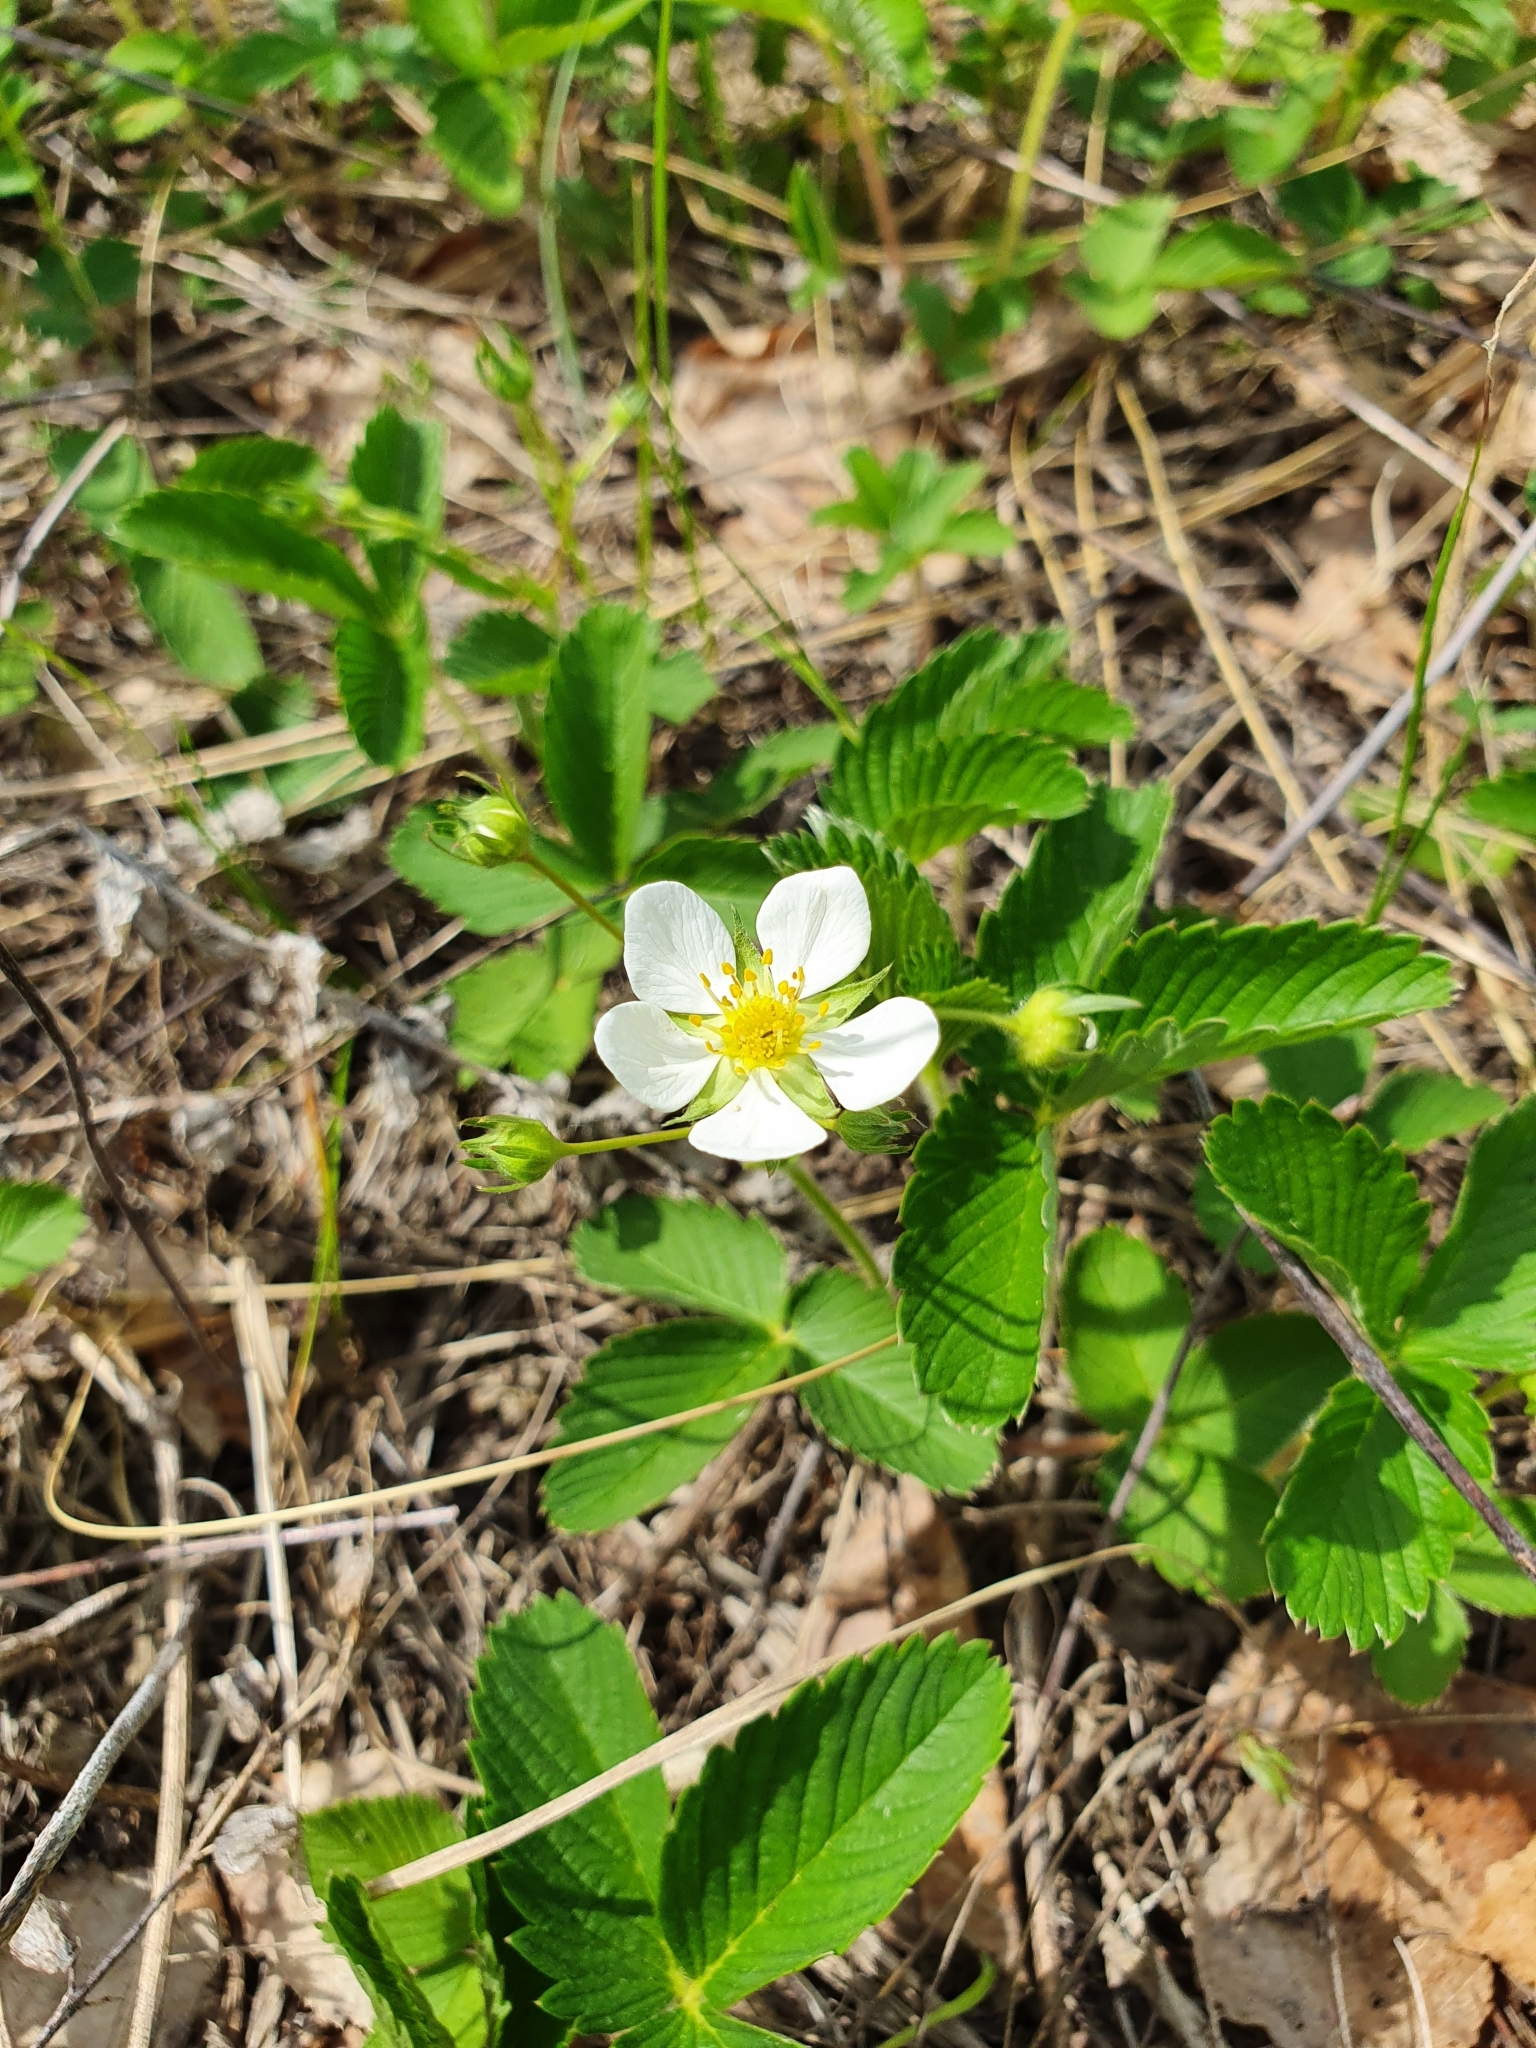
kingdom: Plantae
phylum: Tracheophyta
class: Magnoliopsida
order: Rosales
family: Rosaceae
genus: Fragaria
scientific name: Fragaria viridis
